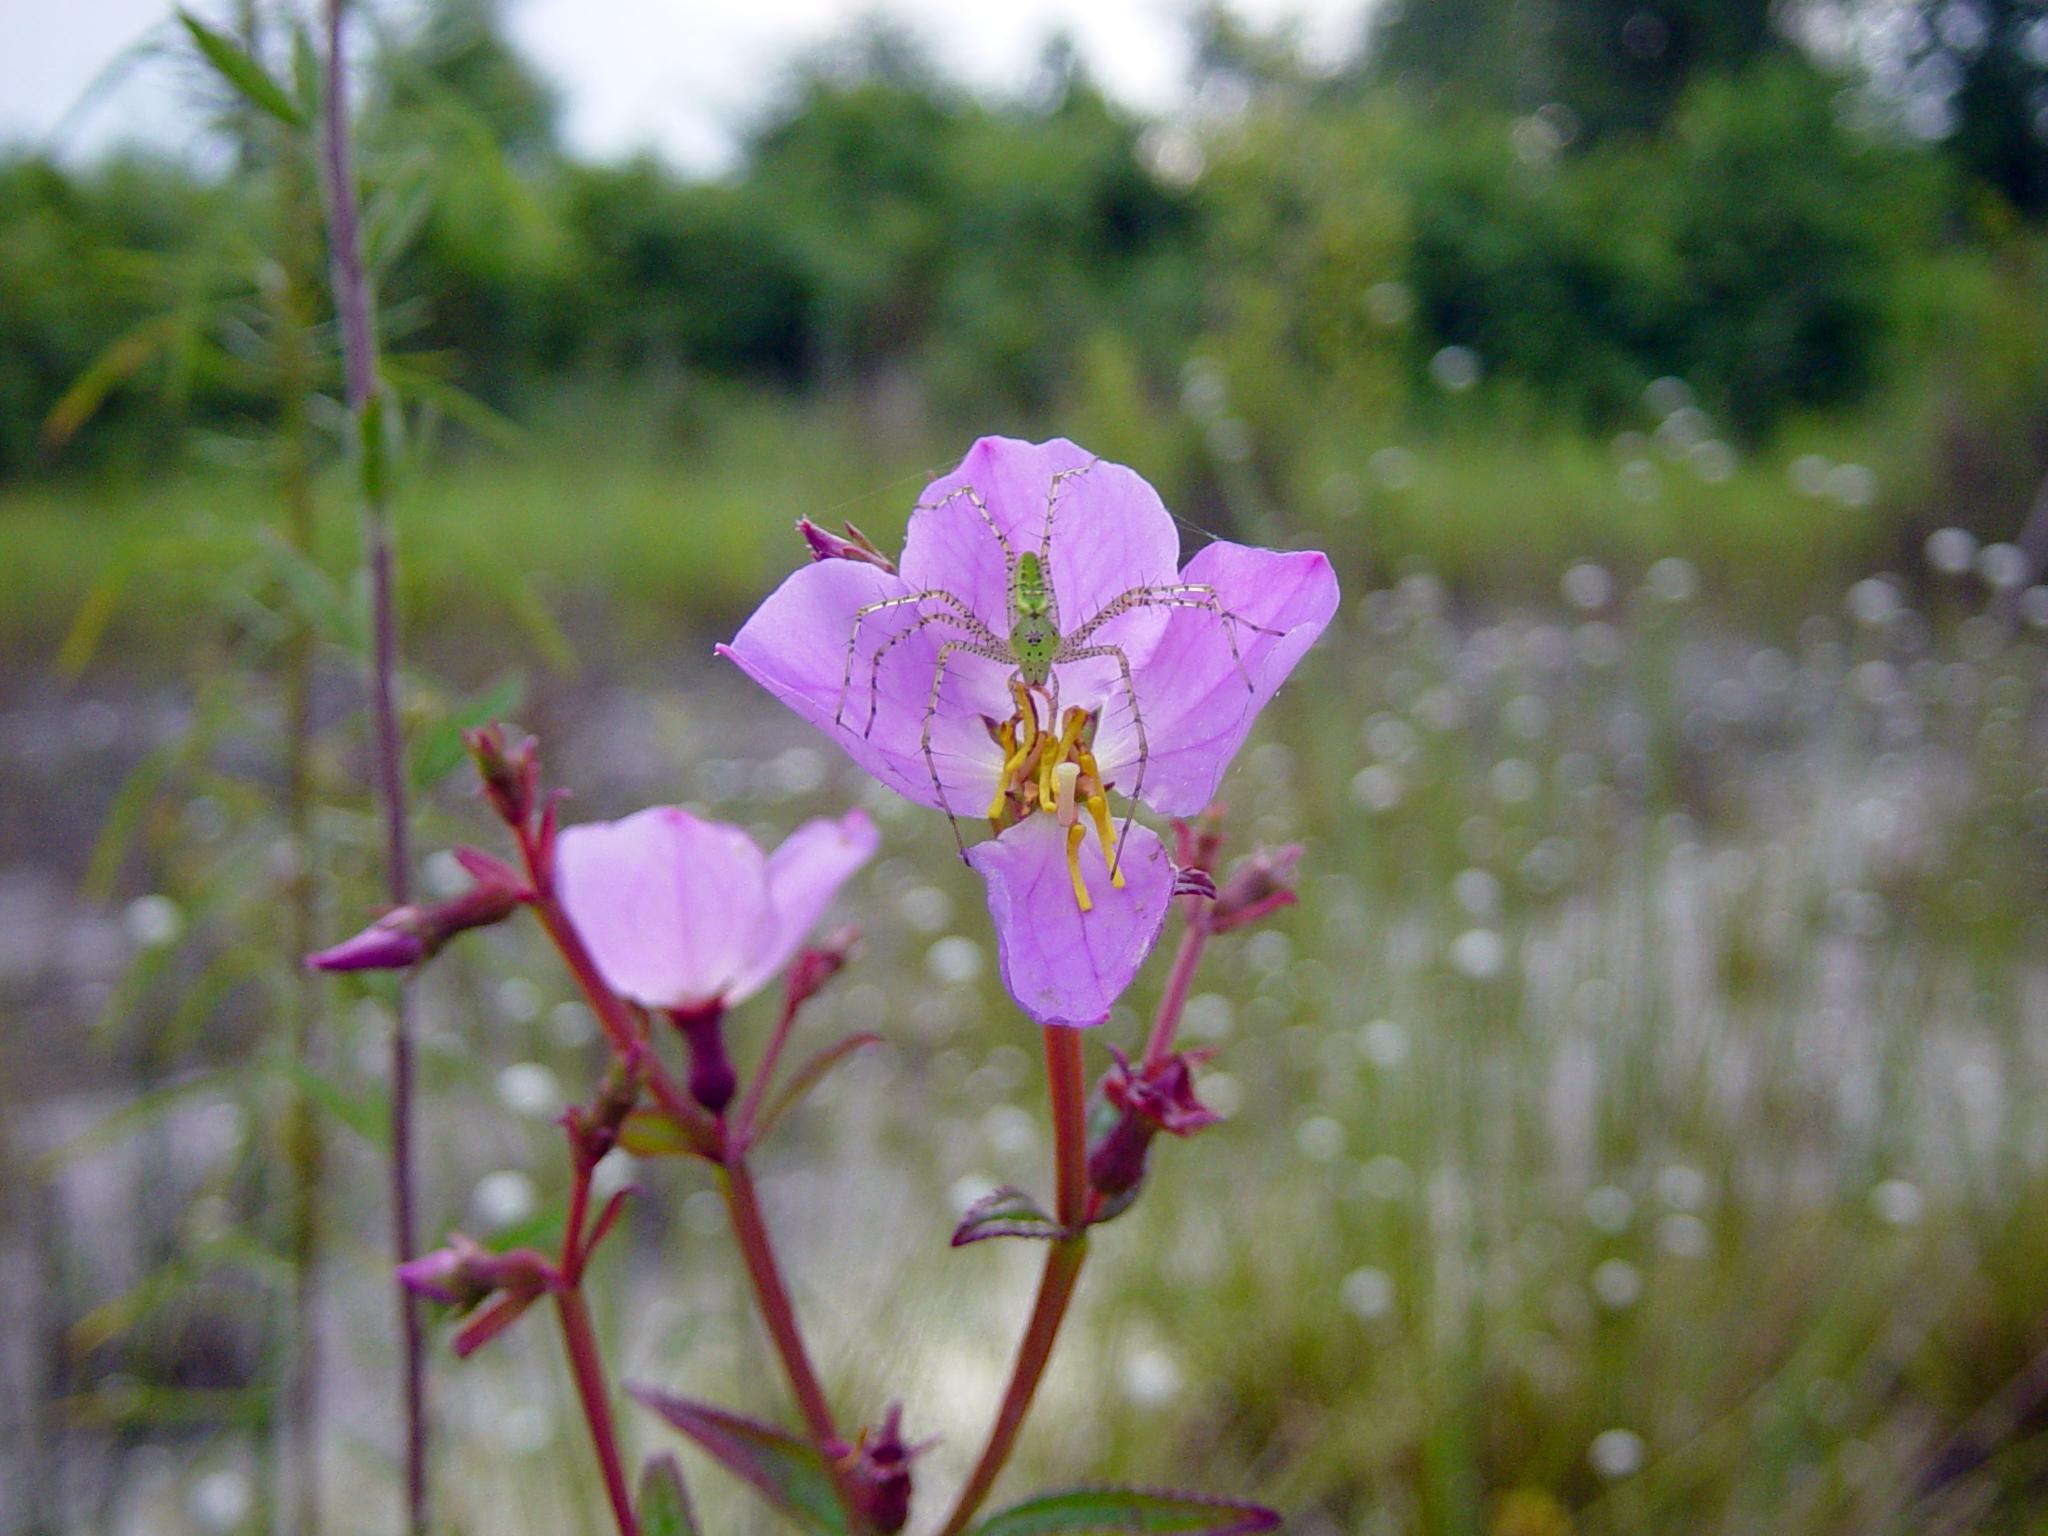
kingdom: Animalia
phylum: Arthropoda
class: Arachnida
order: Araneae
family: Oxyopidae
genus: Peucetia
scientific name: Peucetia viridans
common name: Lynx spiders
